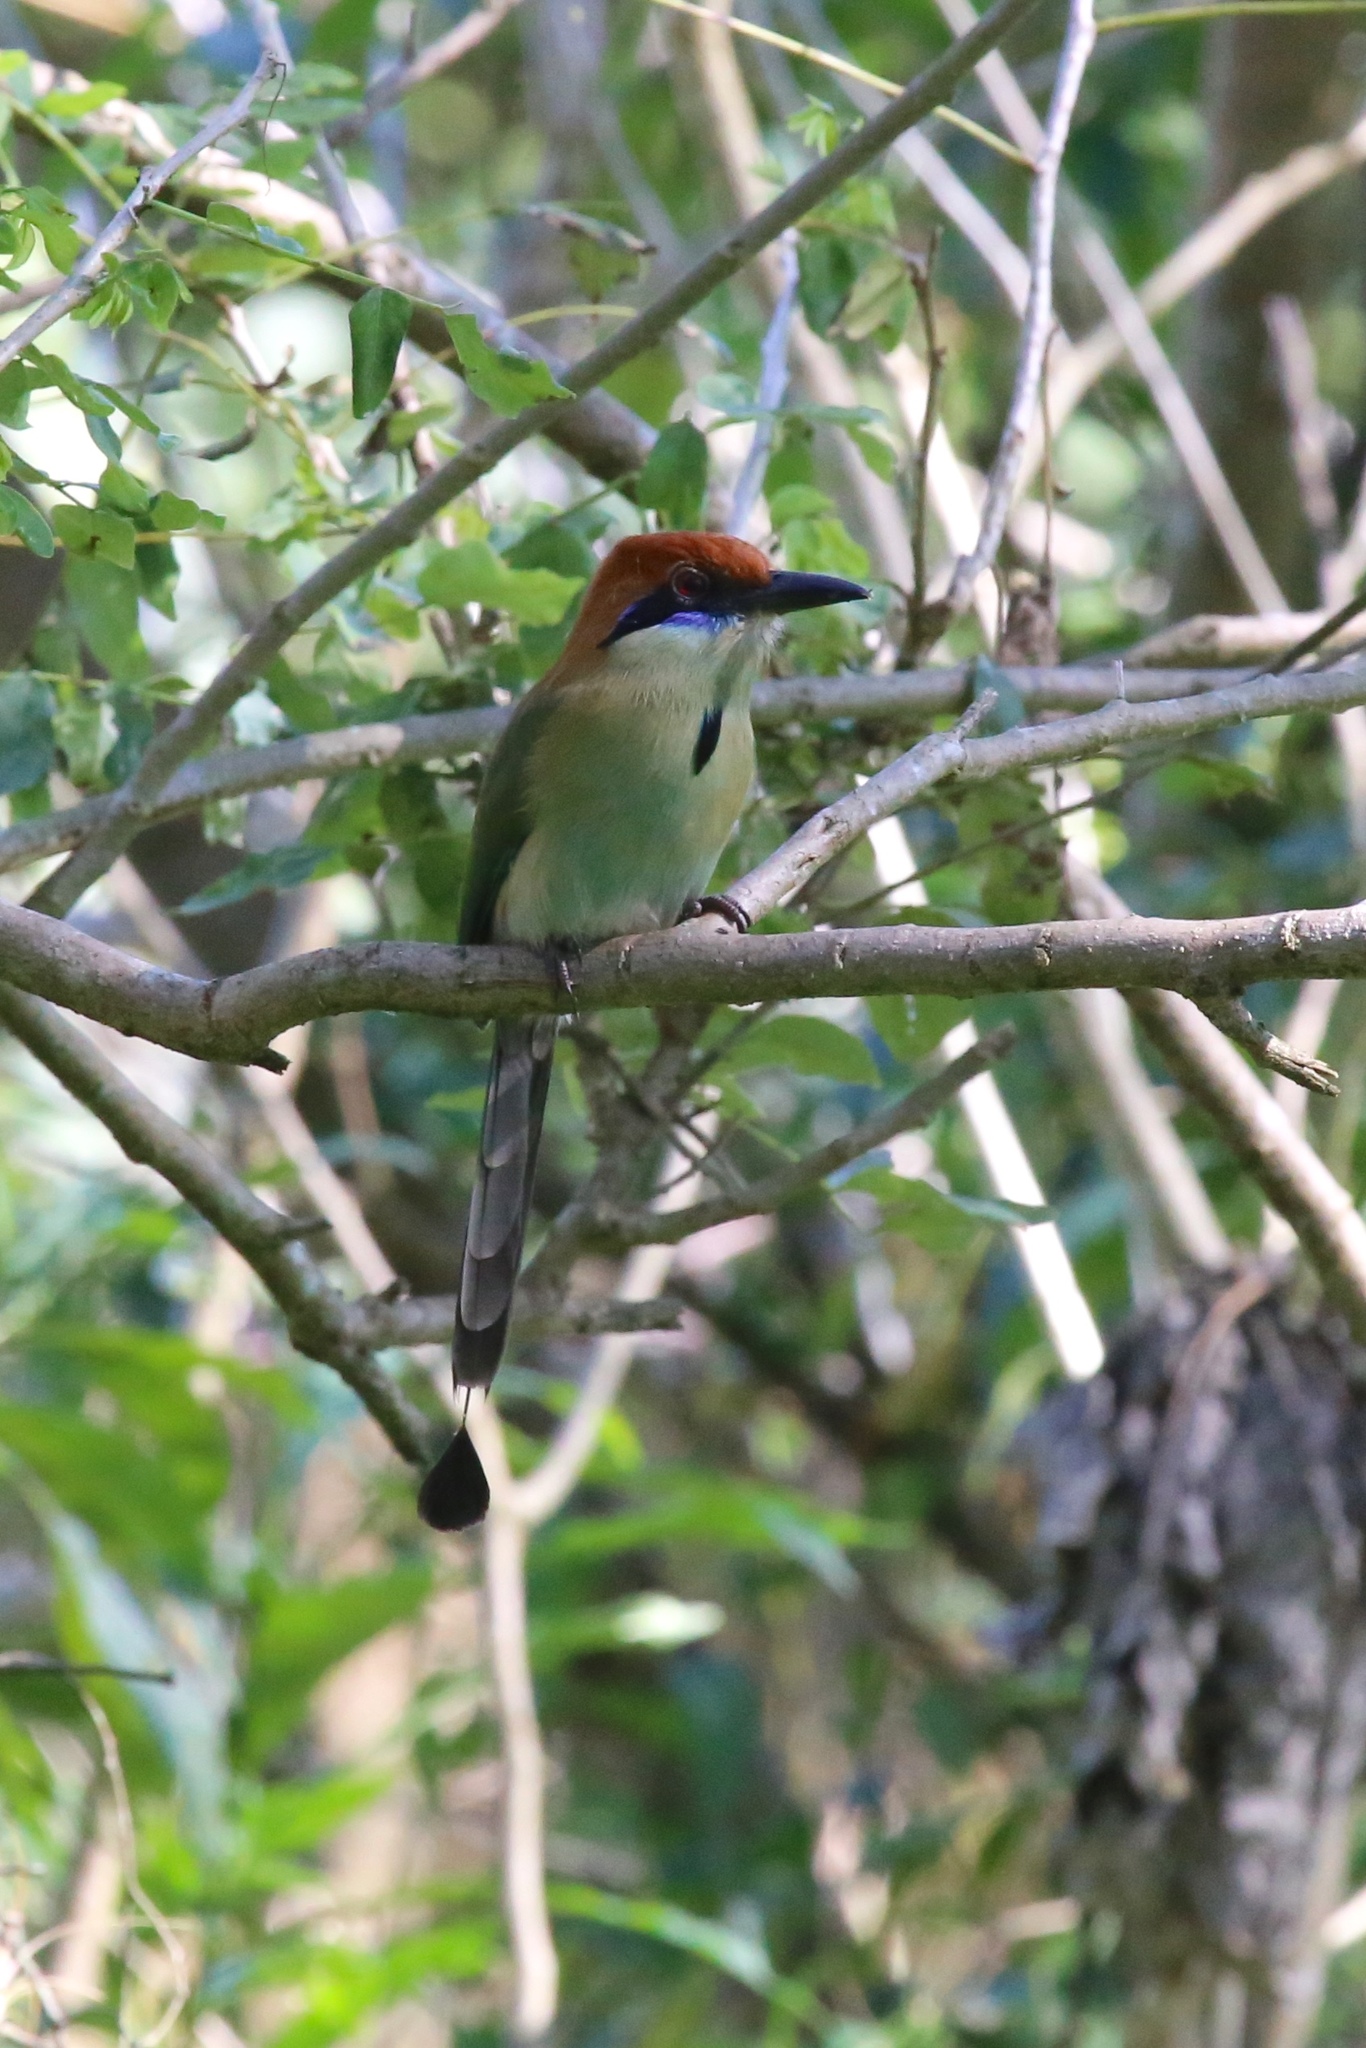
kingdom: Animalia
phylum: Chordata
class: Aves
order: Coraciiformes
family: Momotidae
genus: Momotus
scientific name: Momotus mexicanus
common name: Russet-crowned motmot
